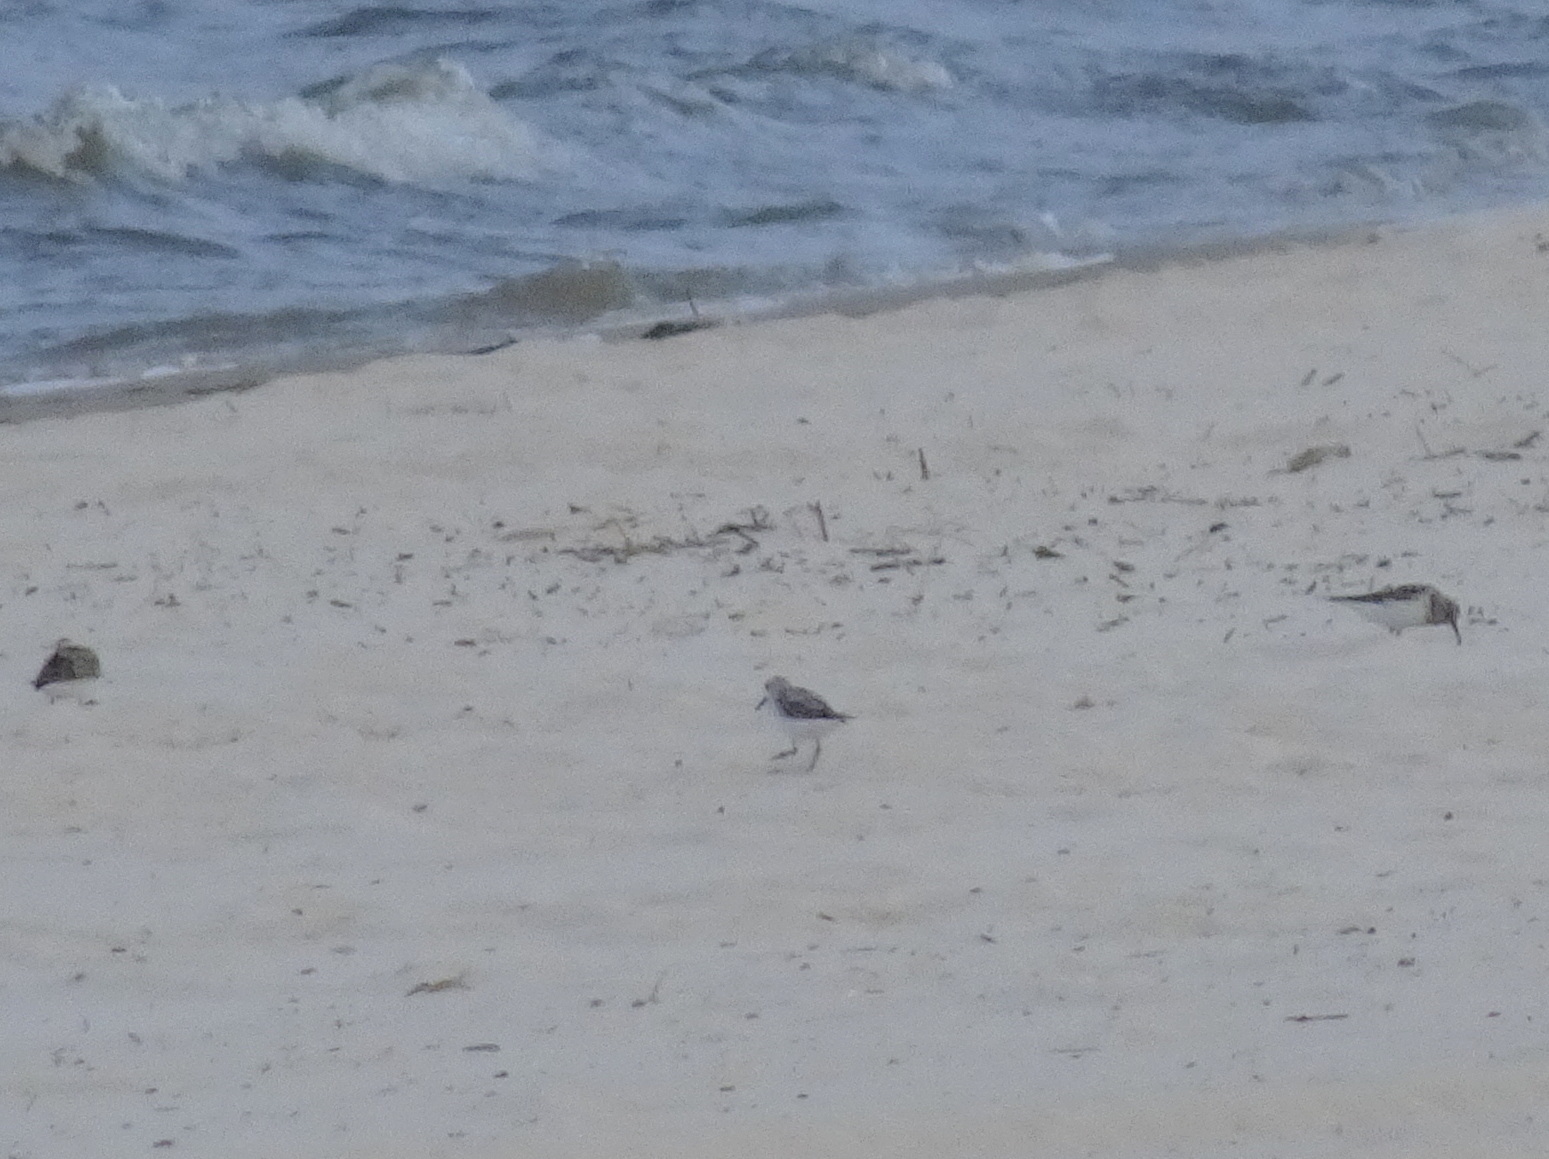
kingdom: Animalia
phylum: Chordata
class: Aves
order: Charadriiformes
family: Scolopacidae
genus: Calidris
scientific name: Calidris alba
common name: Sanderling
